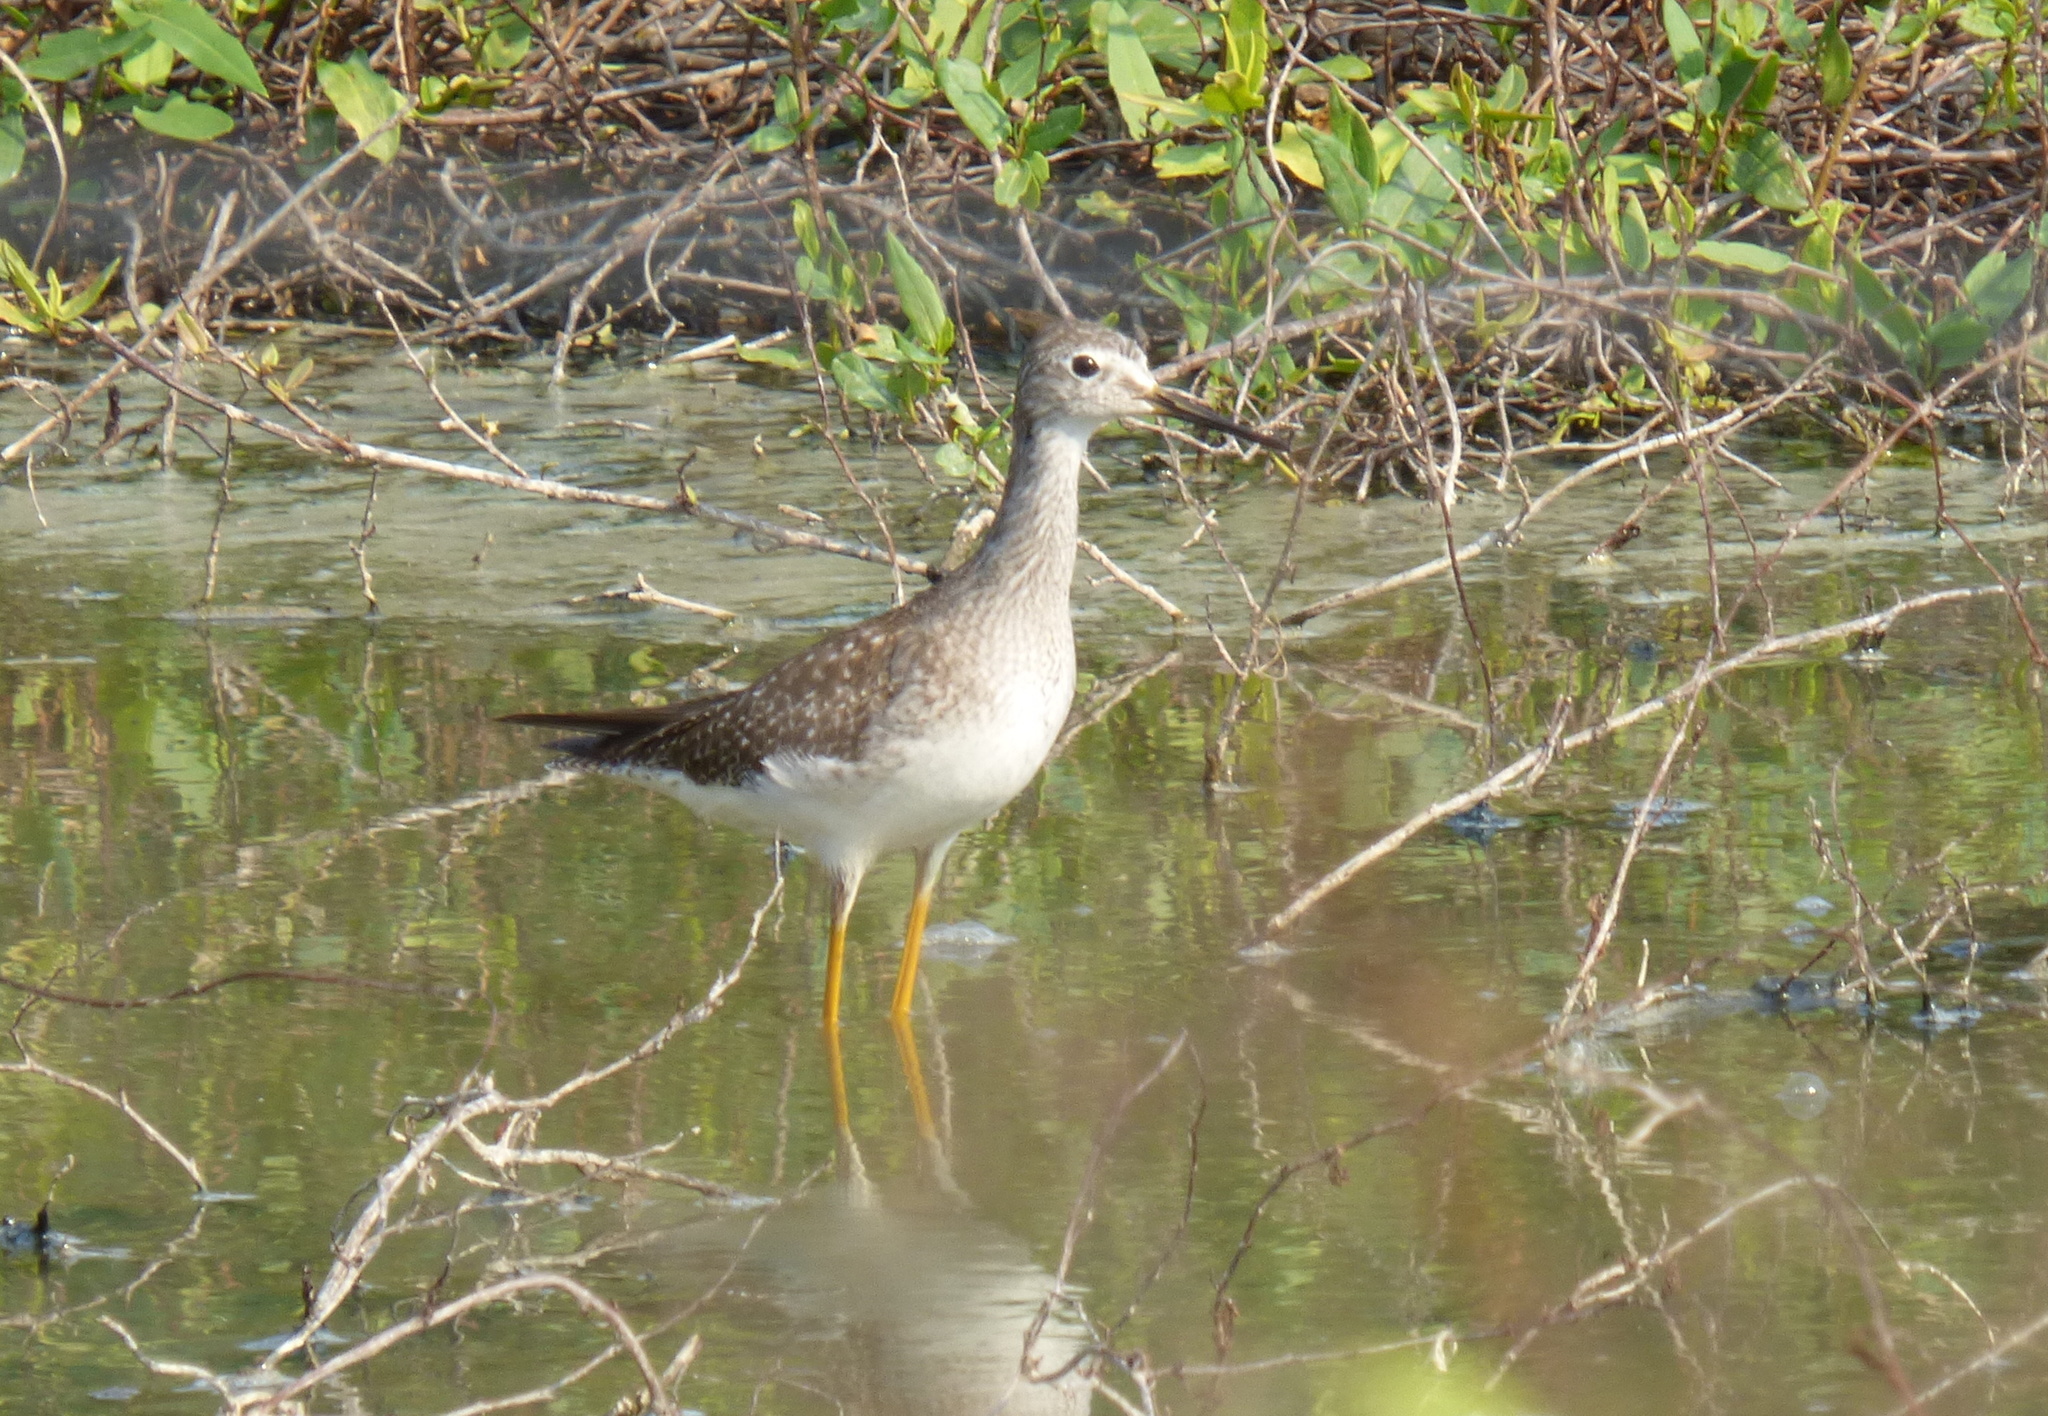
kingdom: Animalia
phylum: Chordata
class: Aves
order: Charadriiformes
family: Scolopacidae
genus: Tringa
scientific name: Tringa flavipes
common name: Lesser yellowlegs
